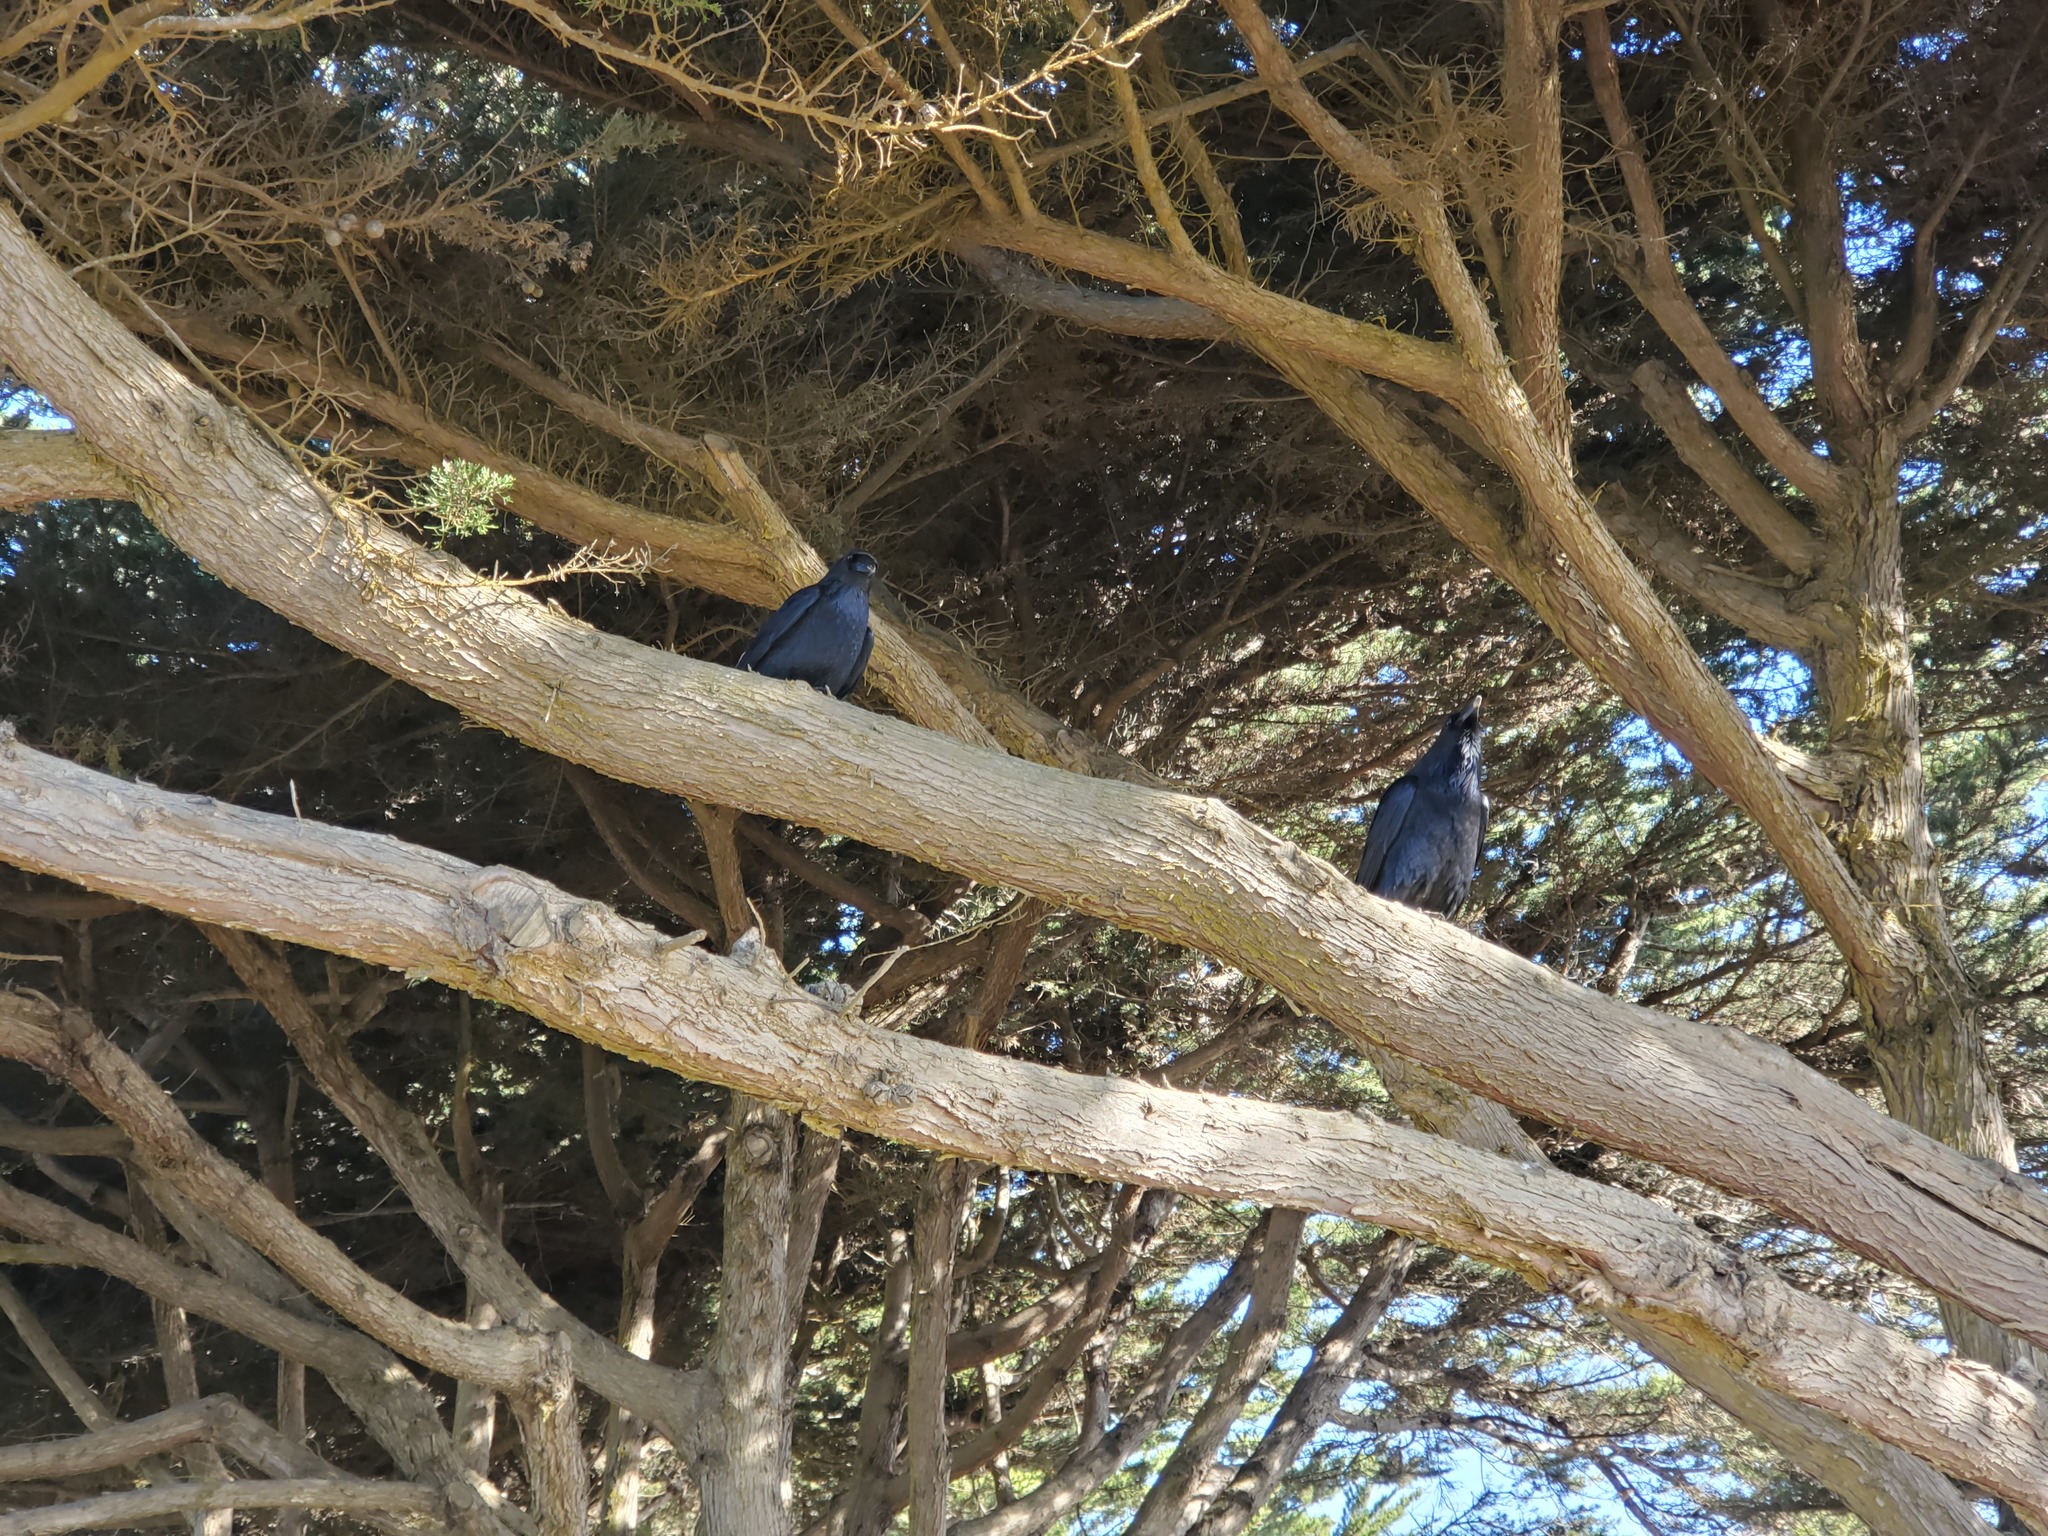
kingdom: Animalia
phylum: Chordata
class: Aves
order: Passeriformes
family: Corvidae
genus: Corvus
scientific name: Corvus brachyrhynchos
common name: American crow
